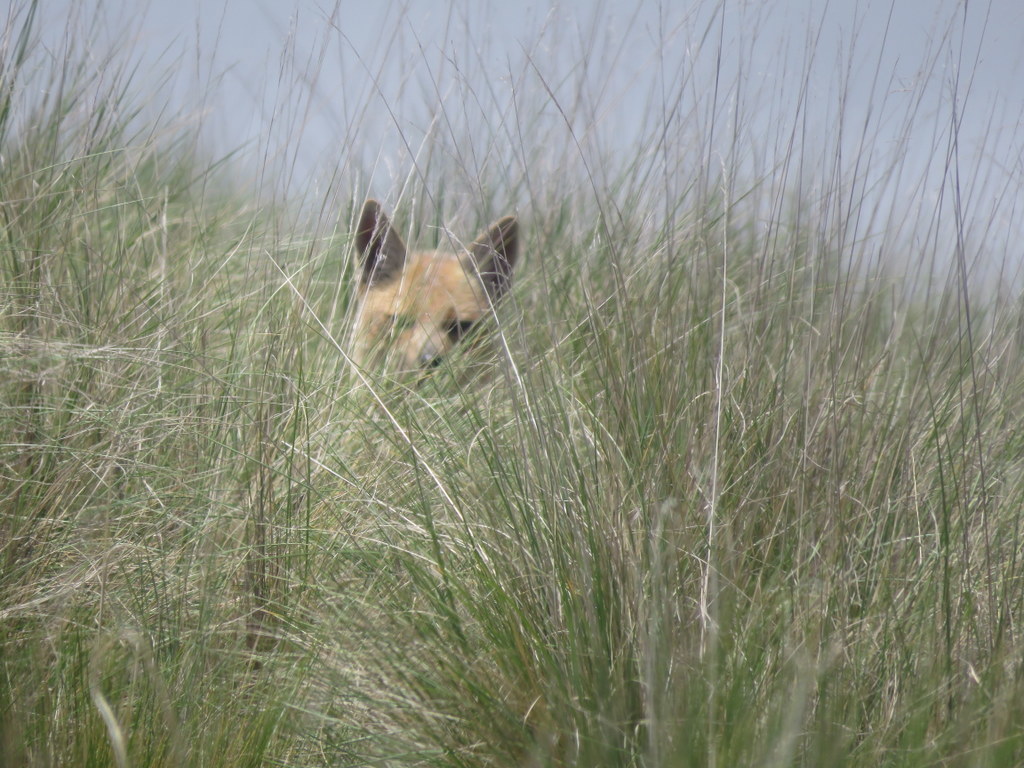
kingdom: Animalia
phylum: Chordata
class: Mammalia
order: Carnivora
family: Canidae
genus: Lycalopex
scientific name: Lycalopex culpaeus
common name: Culpeo
